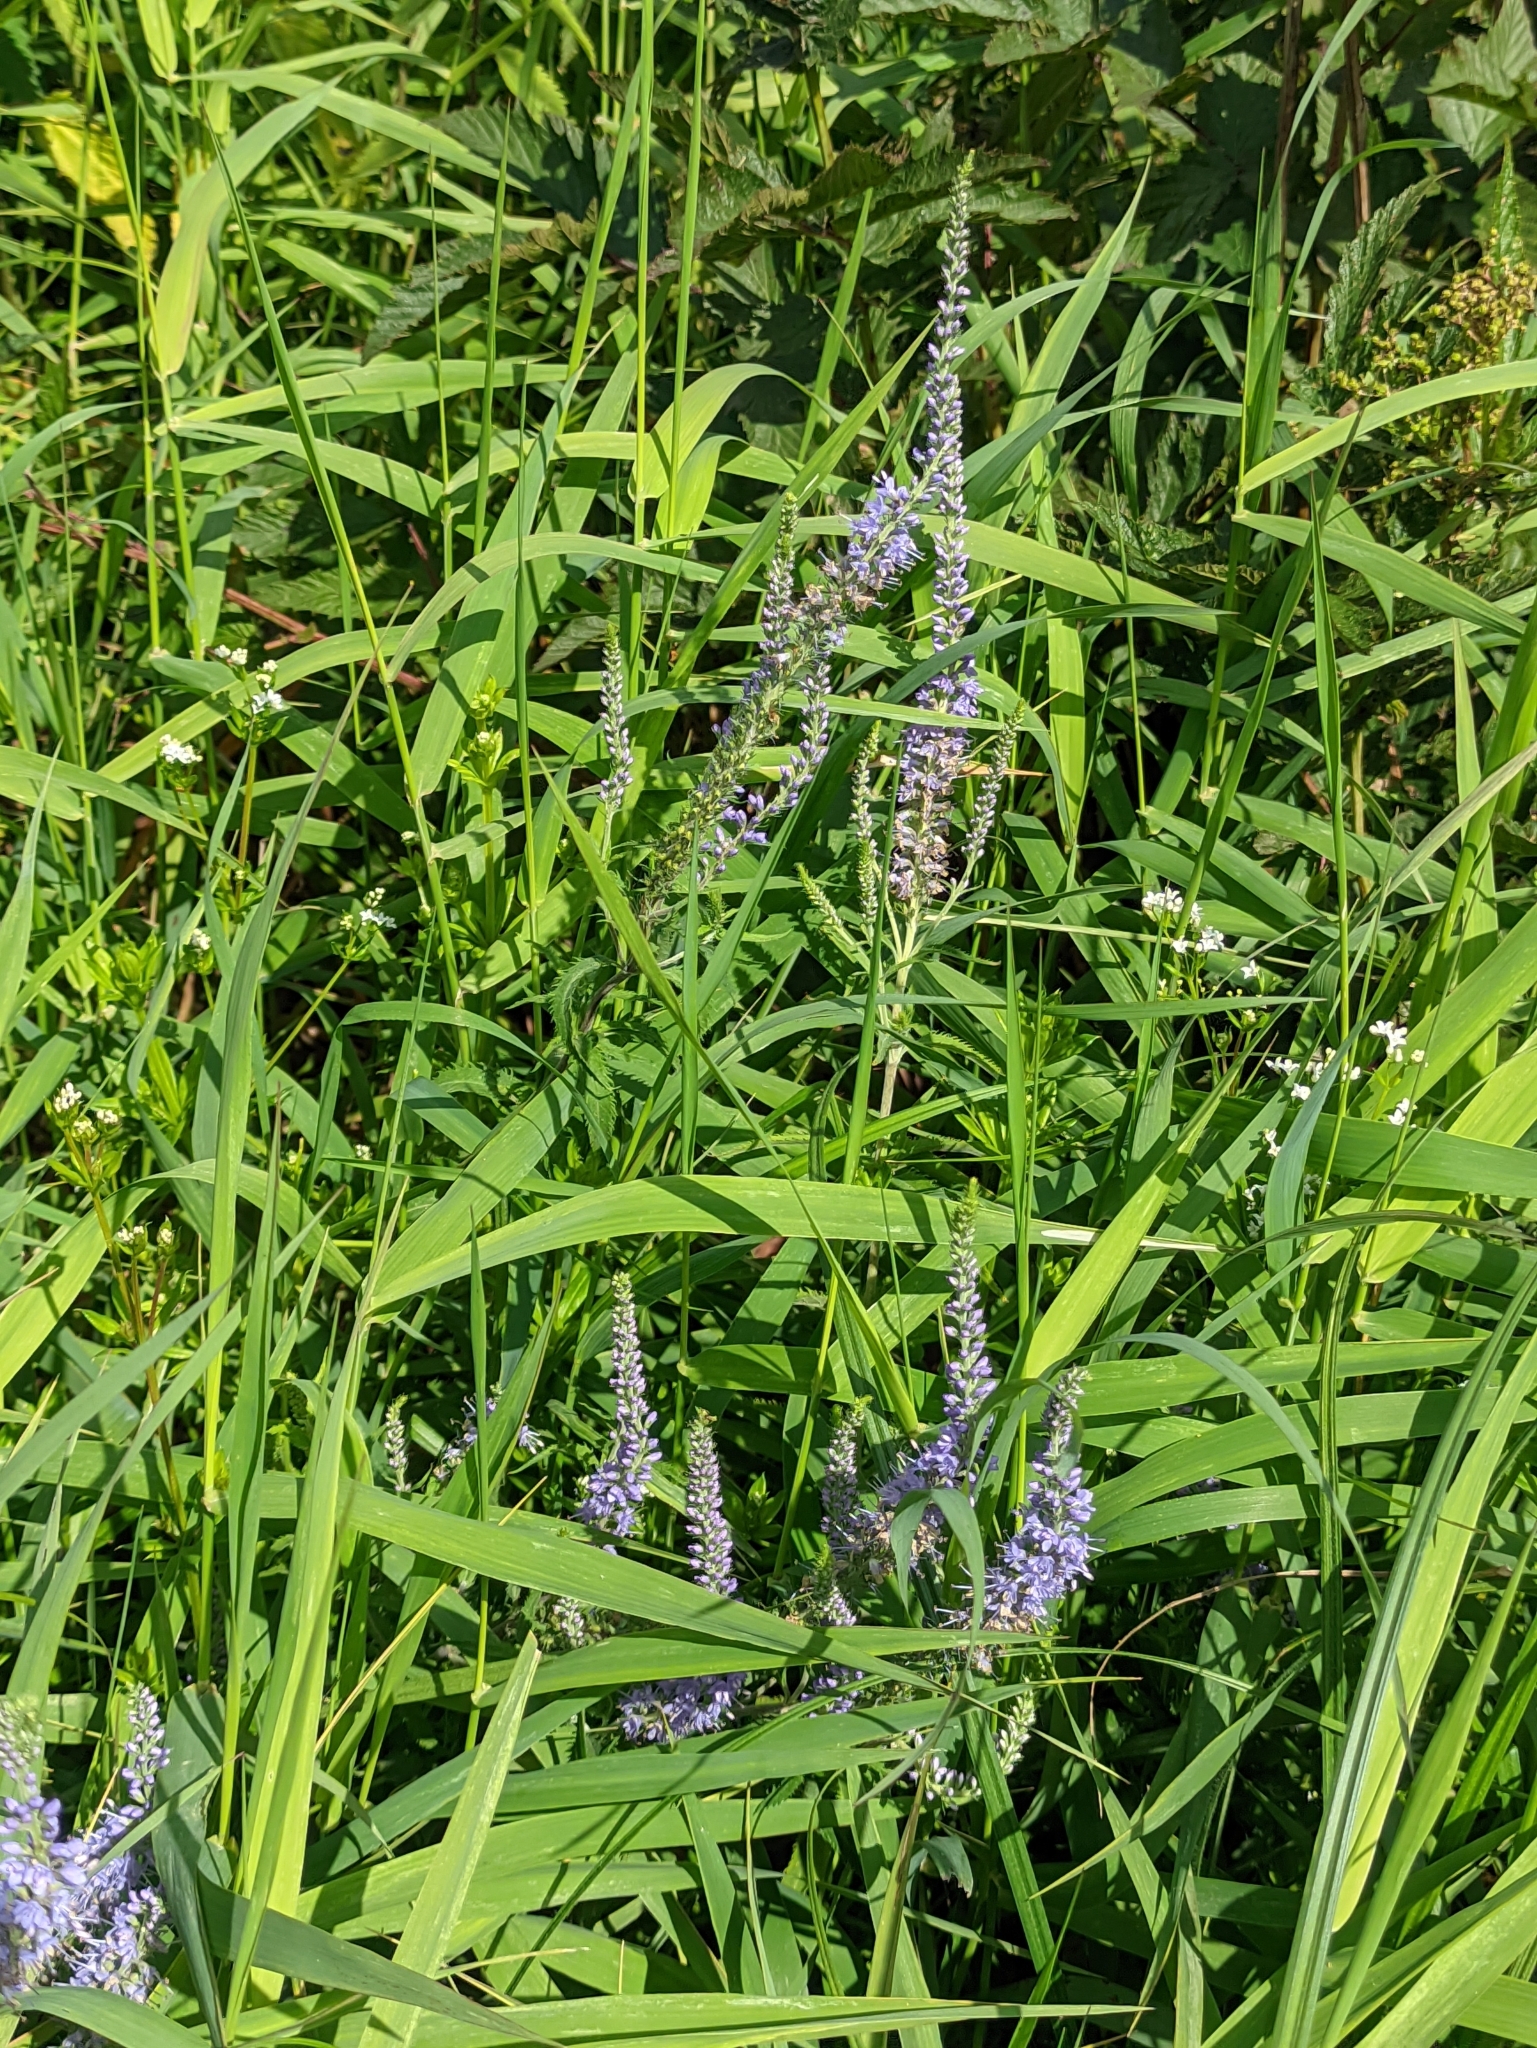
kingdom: Plantae
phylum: Tracheophyta
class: Magnoliopsida
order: Lamiales
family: Plantaginaceae
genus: Veronica
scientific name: Veronica longifolia
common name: Garden speedwell
